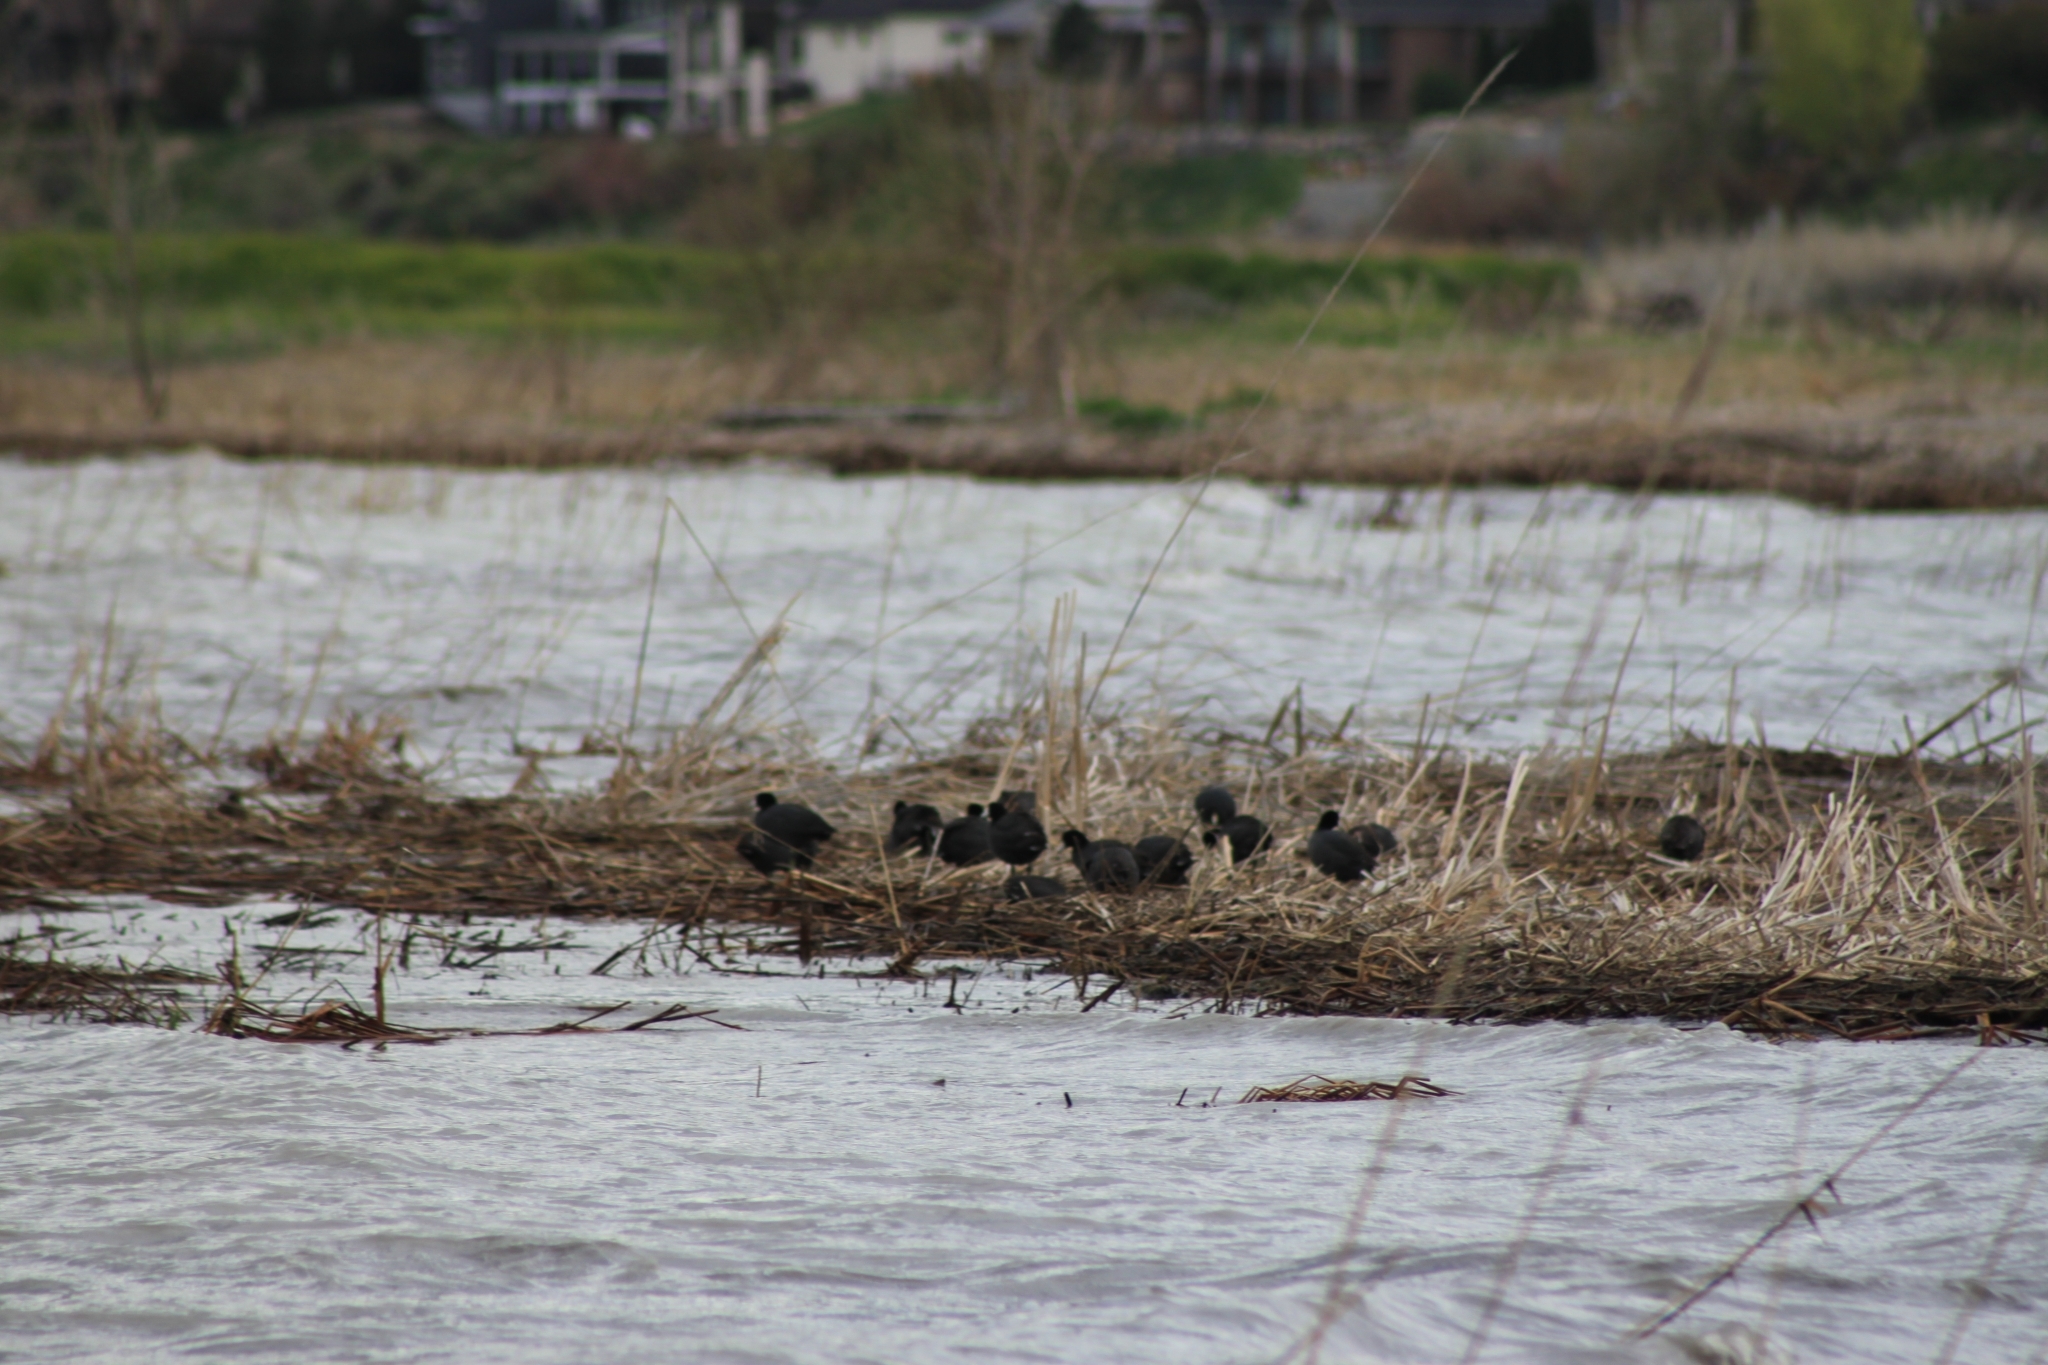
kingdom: Animalia
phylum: Chordata
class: Aves
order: Gruiformes
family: Rallidae
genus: Fulica
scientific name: Fulica americana
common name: American coot
